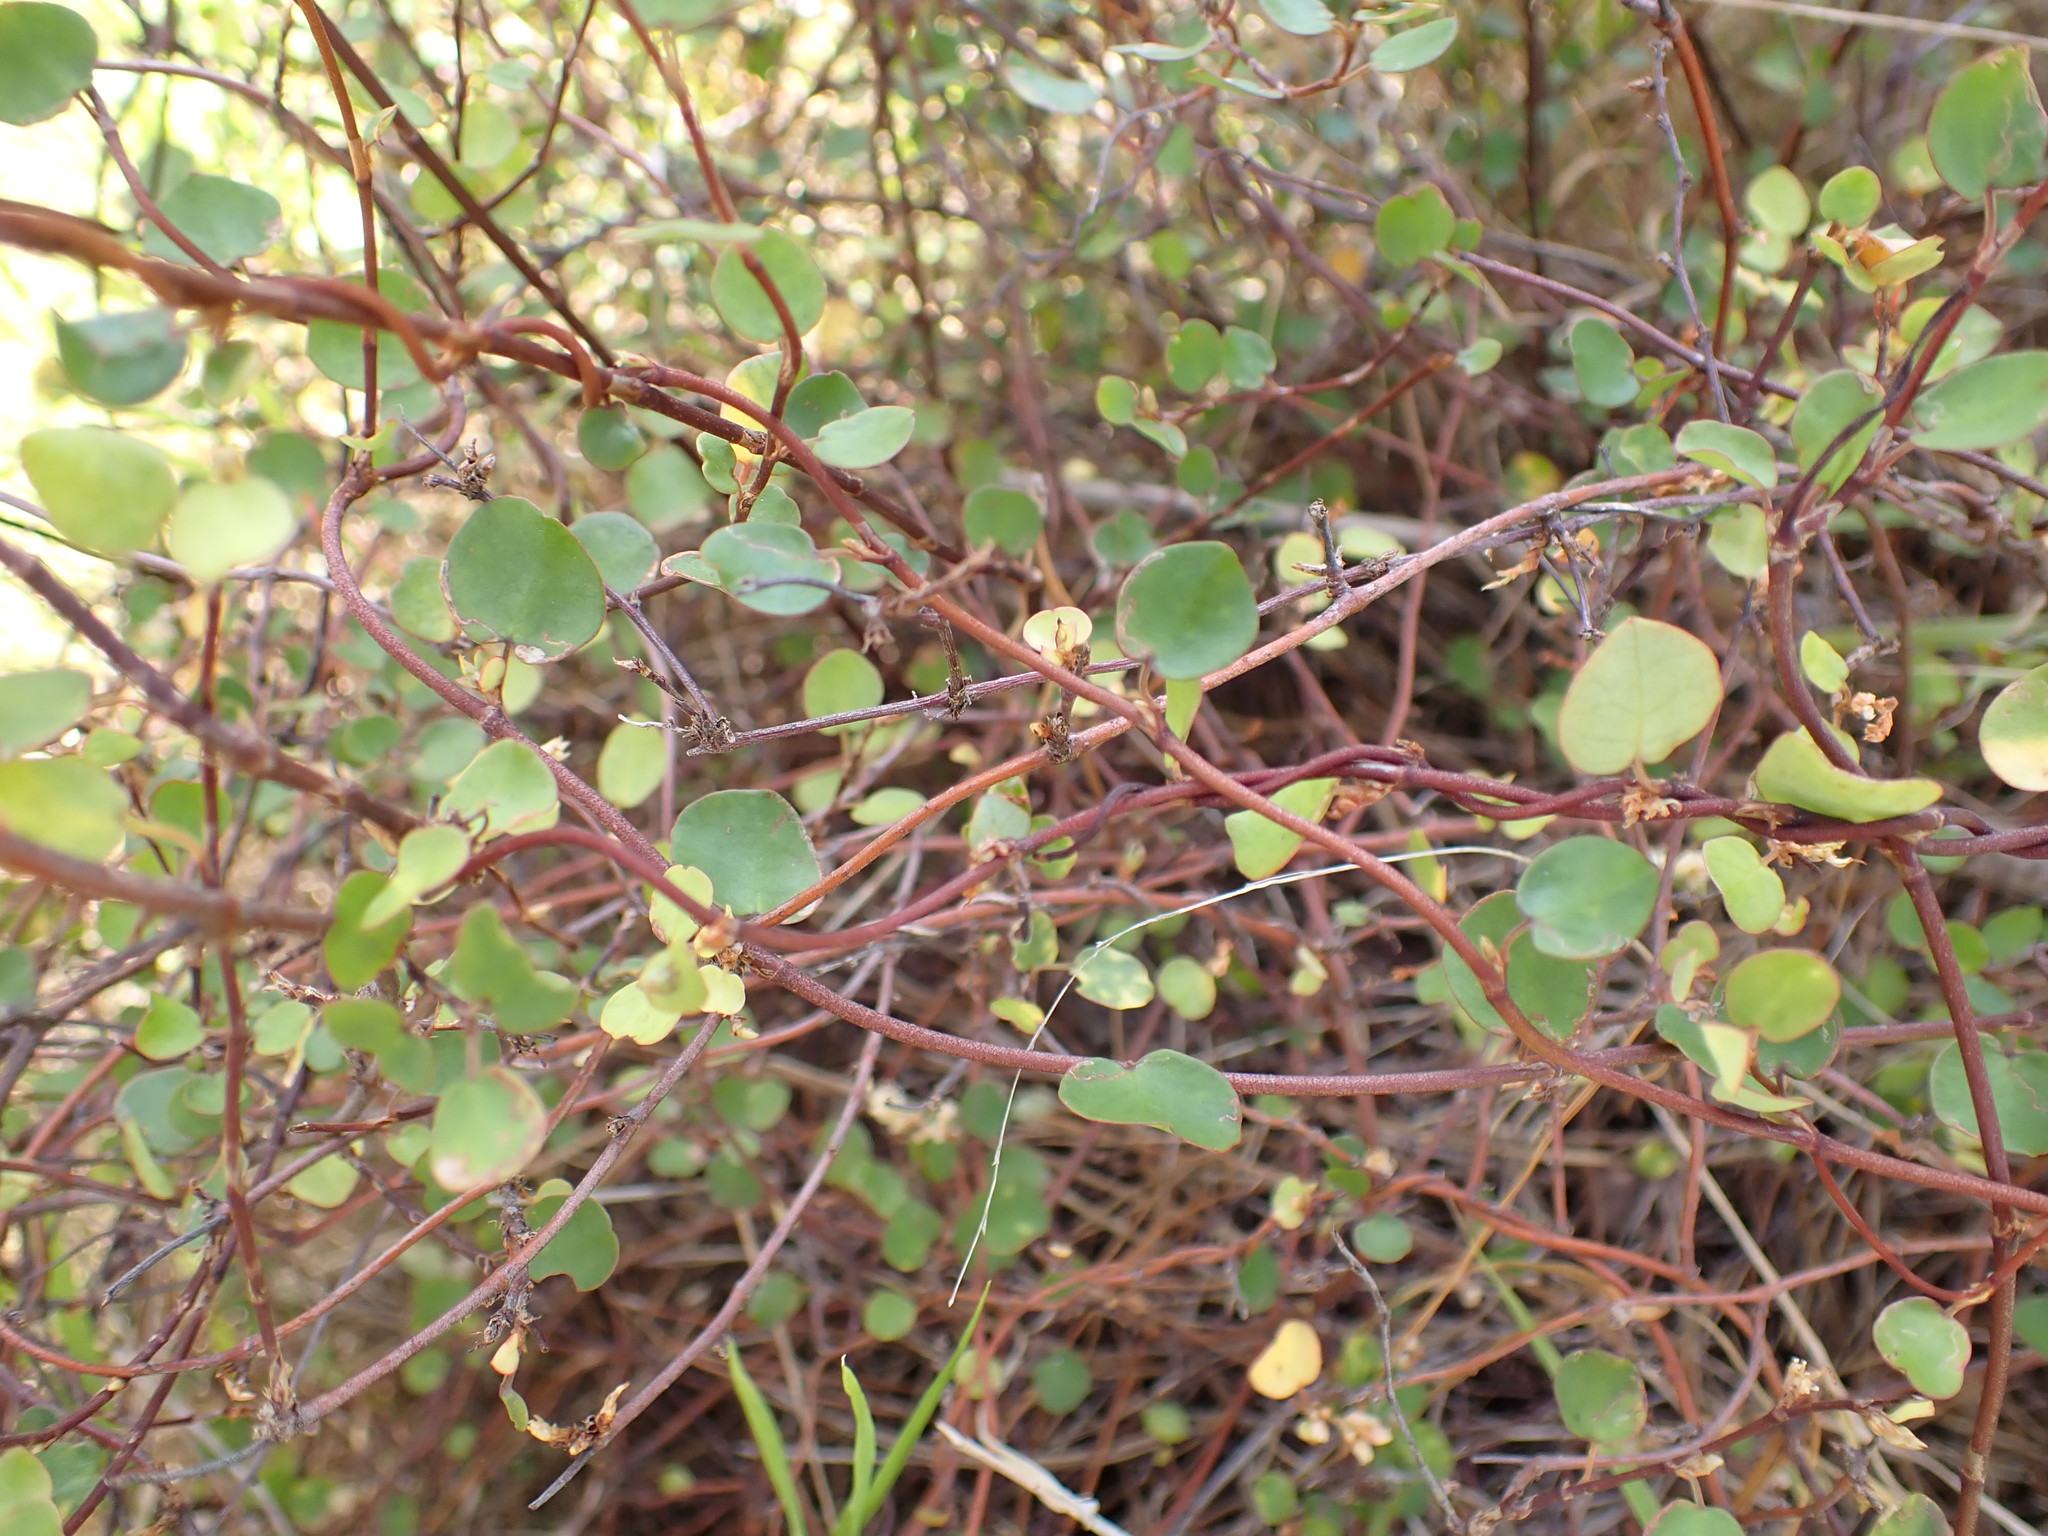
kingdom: Plantae
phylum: Tracheophyta
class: Magnoliopsida
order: Caryophyllales
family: Polygonaceae
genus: Muehlenbeckia
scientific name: Muehlenbeckia complexa
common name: Wireplant
